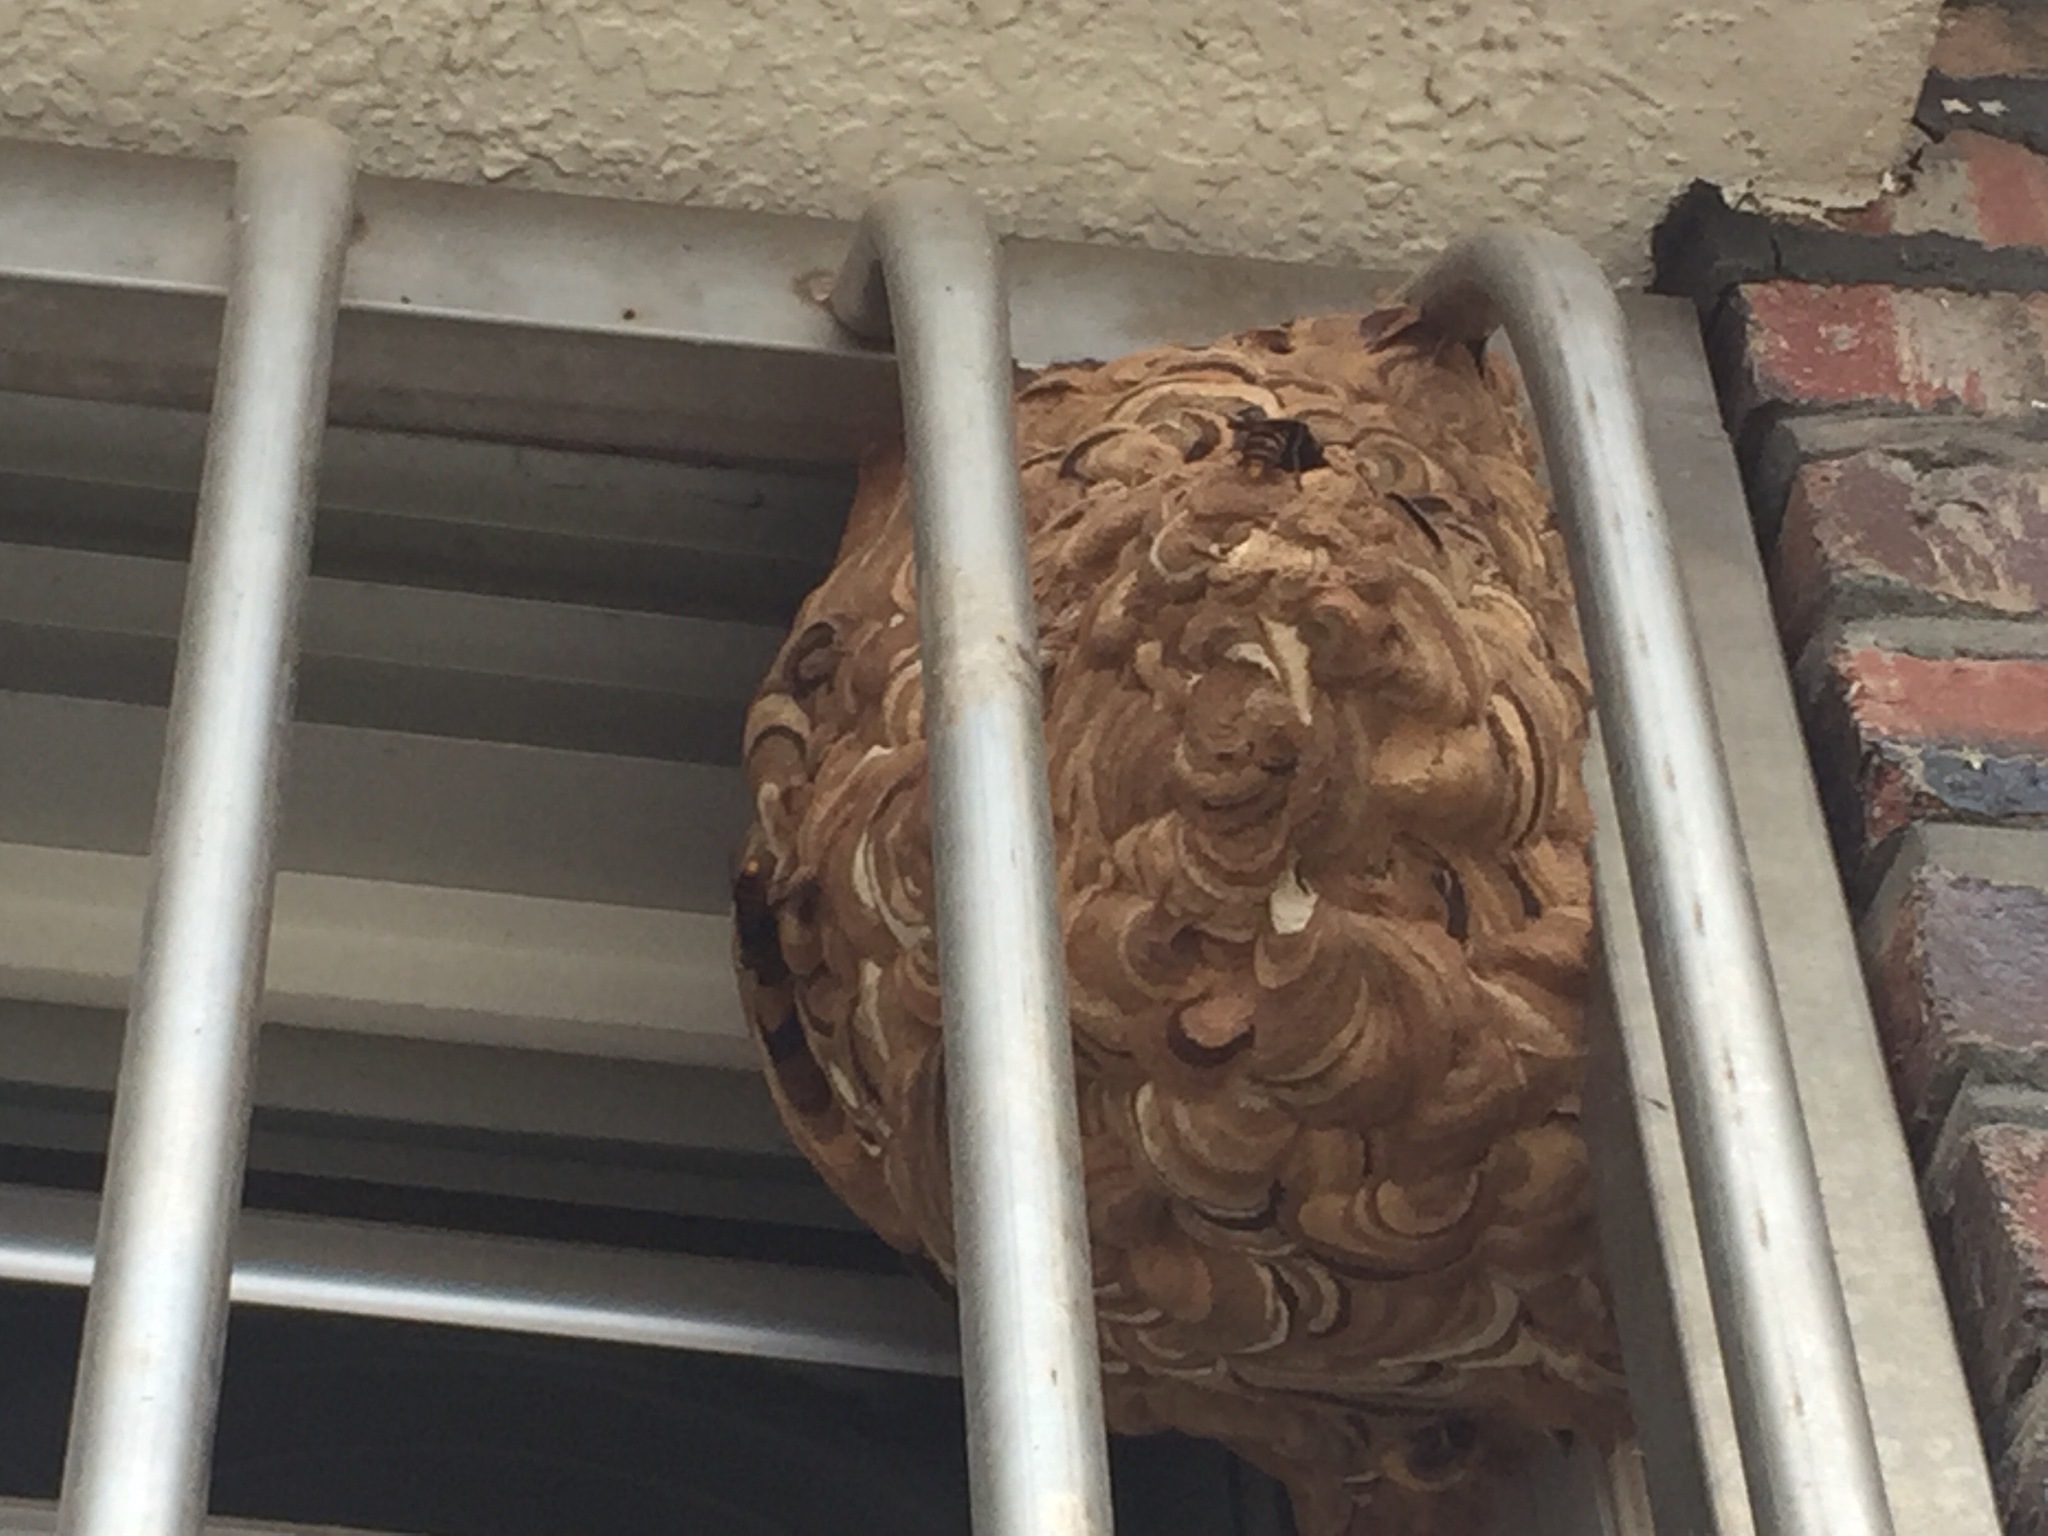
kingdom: Animalia
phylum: Arthropoda
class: Insecta
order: Hymenoptera
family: Vespidae
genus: Vespa
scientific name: Vespa analis
